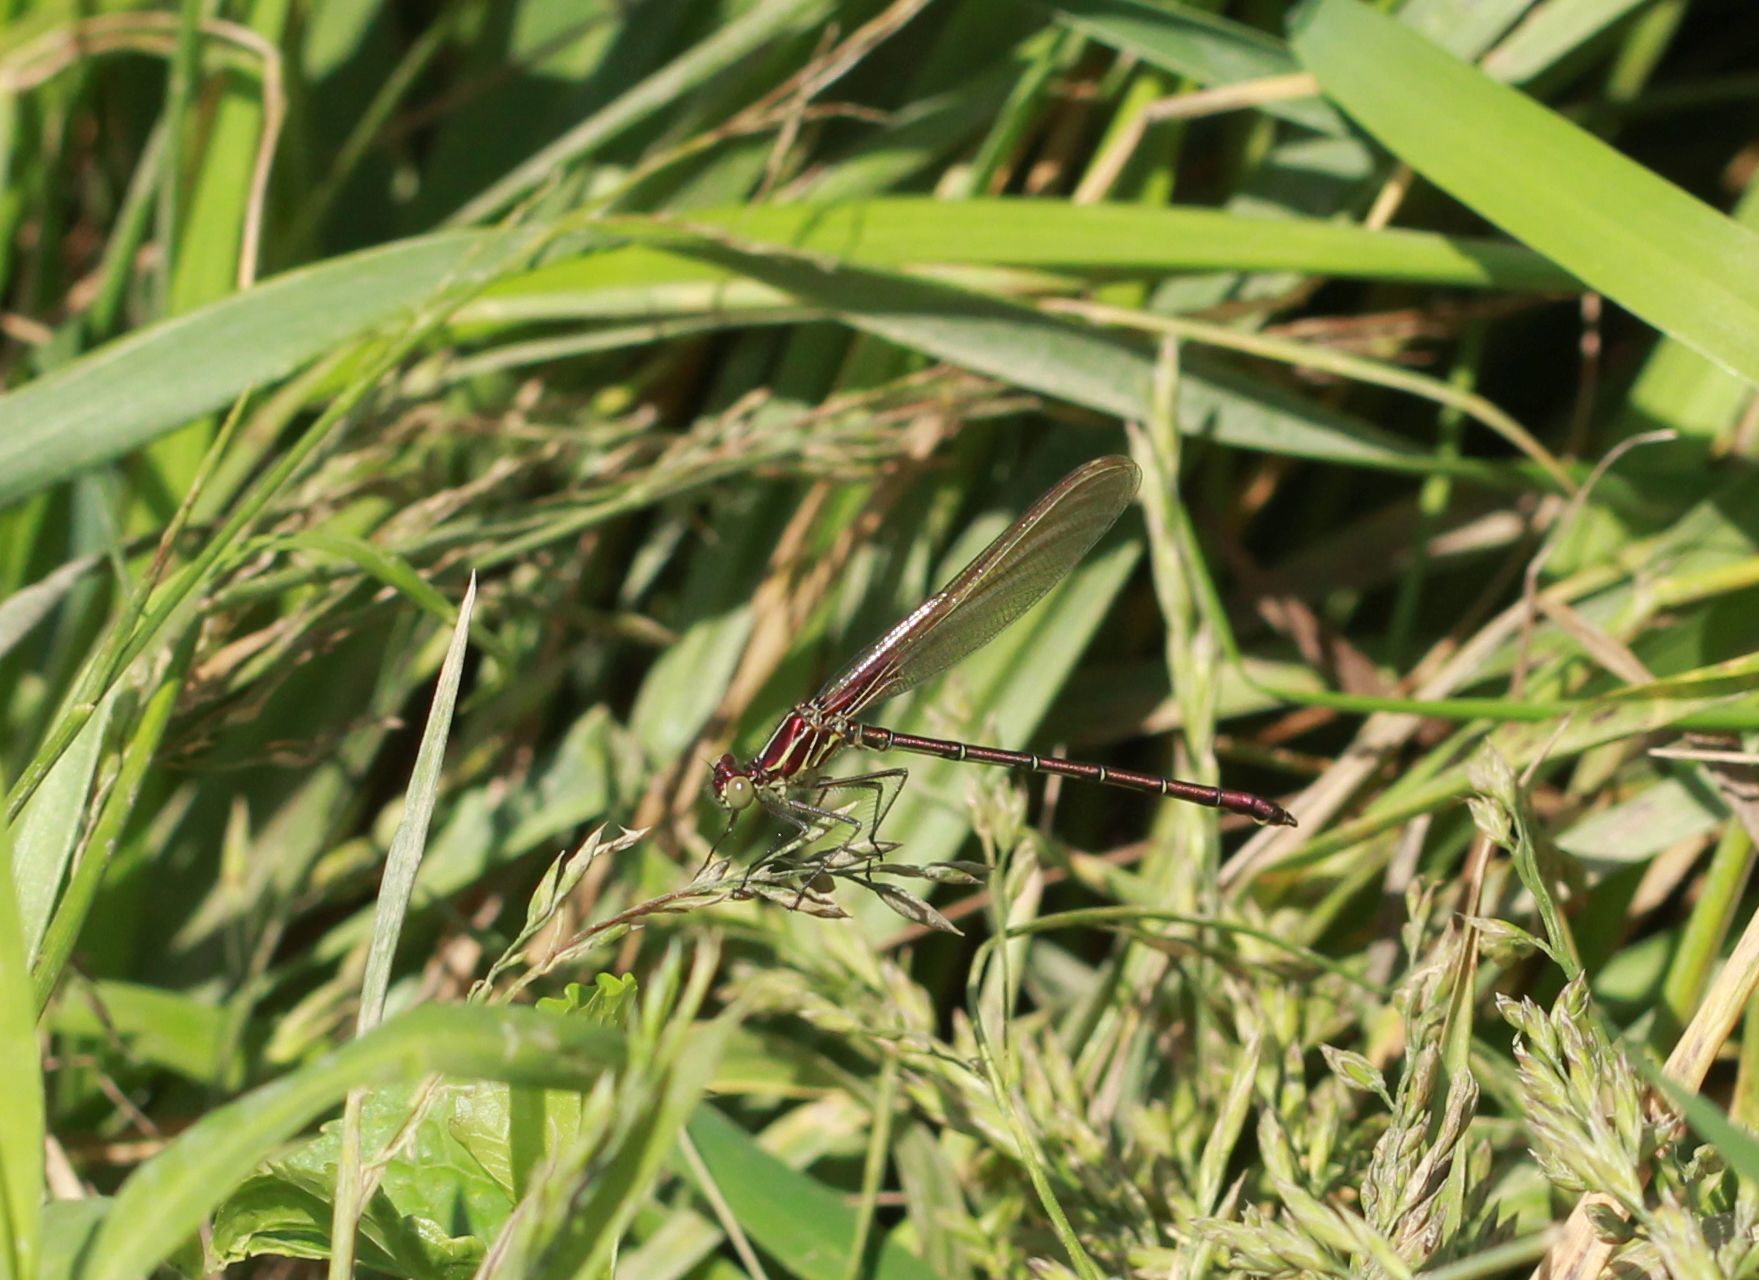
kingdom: Animalia
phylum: Arthropoda
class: Insecta
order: Odonata
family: Calopterygidae
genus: Hetaerina
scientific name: Hetaerina americana
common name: American rubyspot
